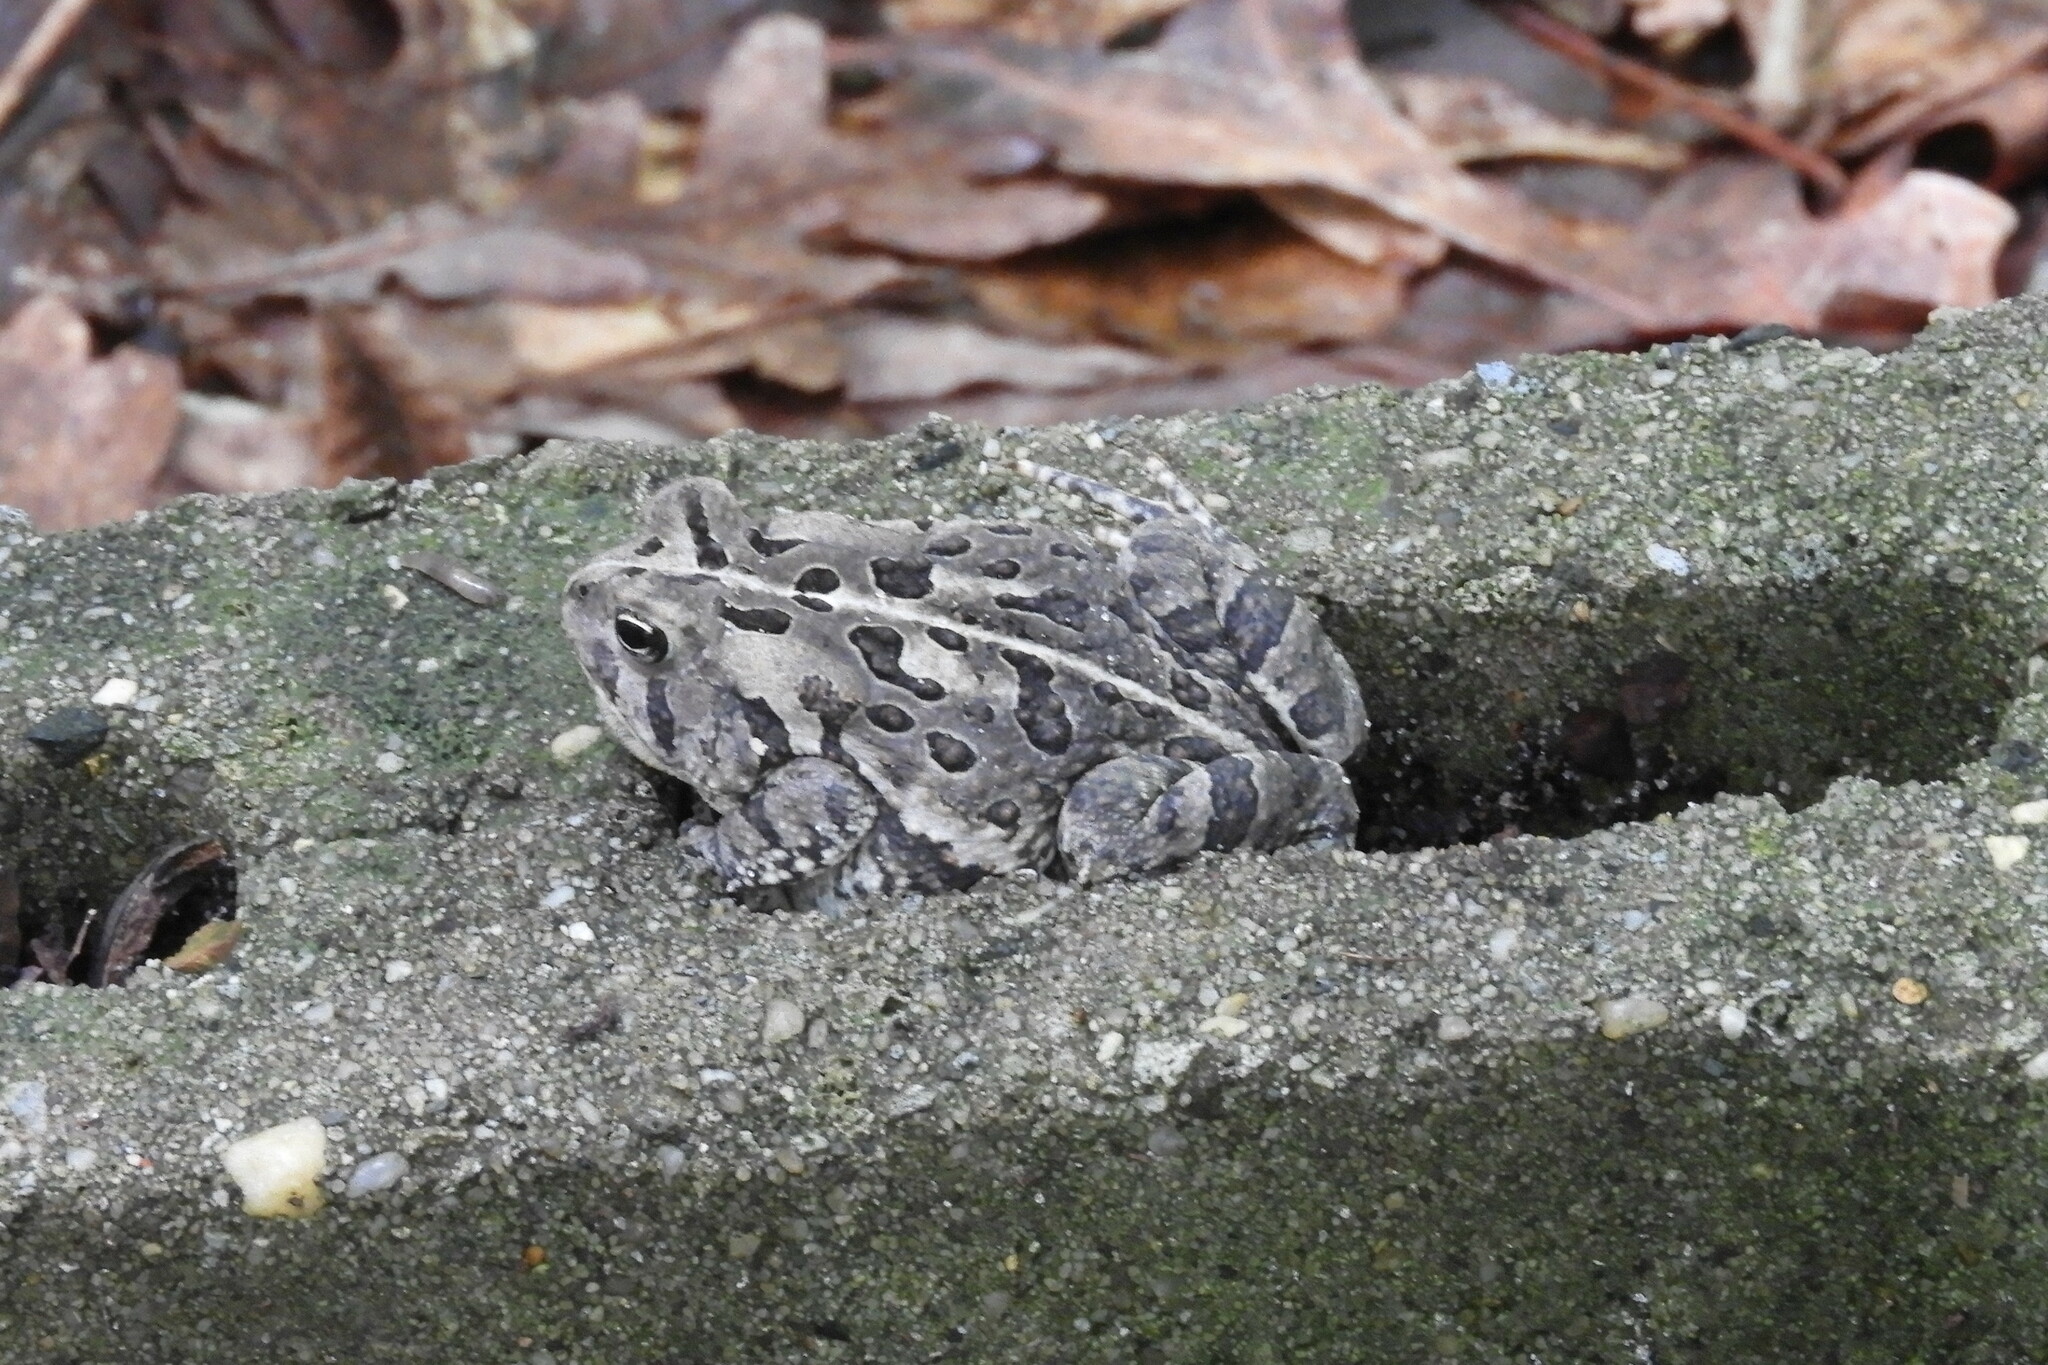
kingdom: Animalia
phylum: Chordata
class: Amphibia
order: Anura
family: Bufonidae
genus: Anaxyrus
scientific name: Anaxyrus fowleri
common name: Fowler's toad
